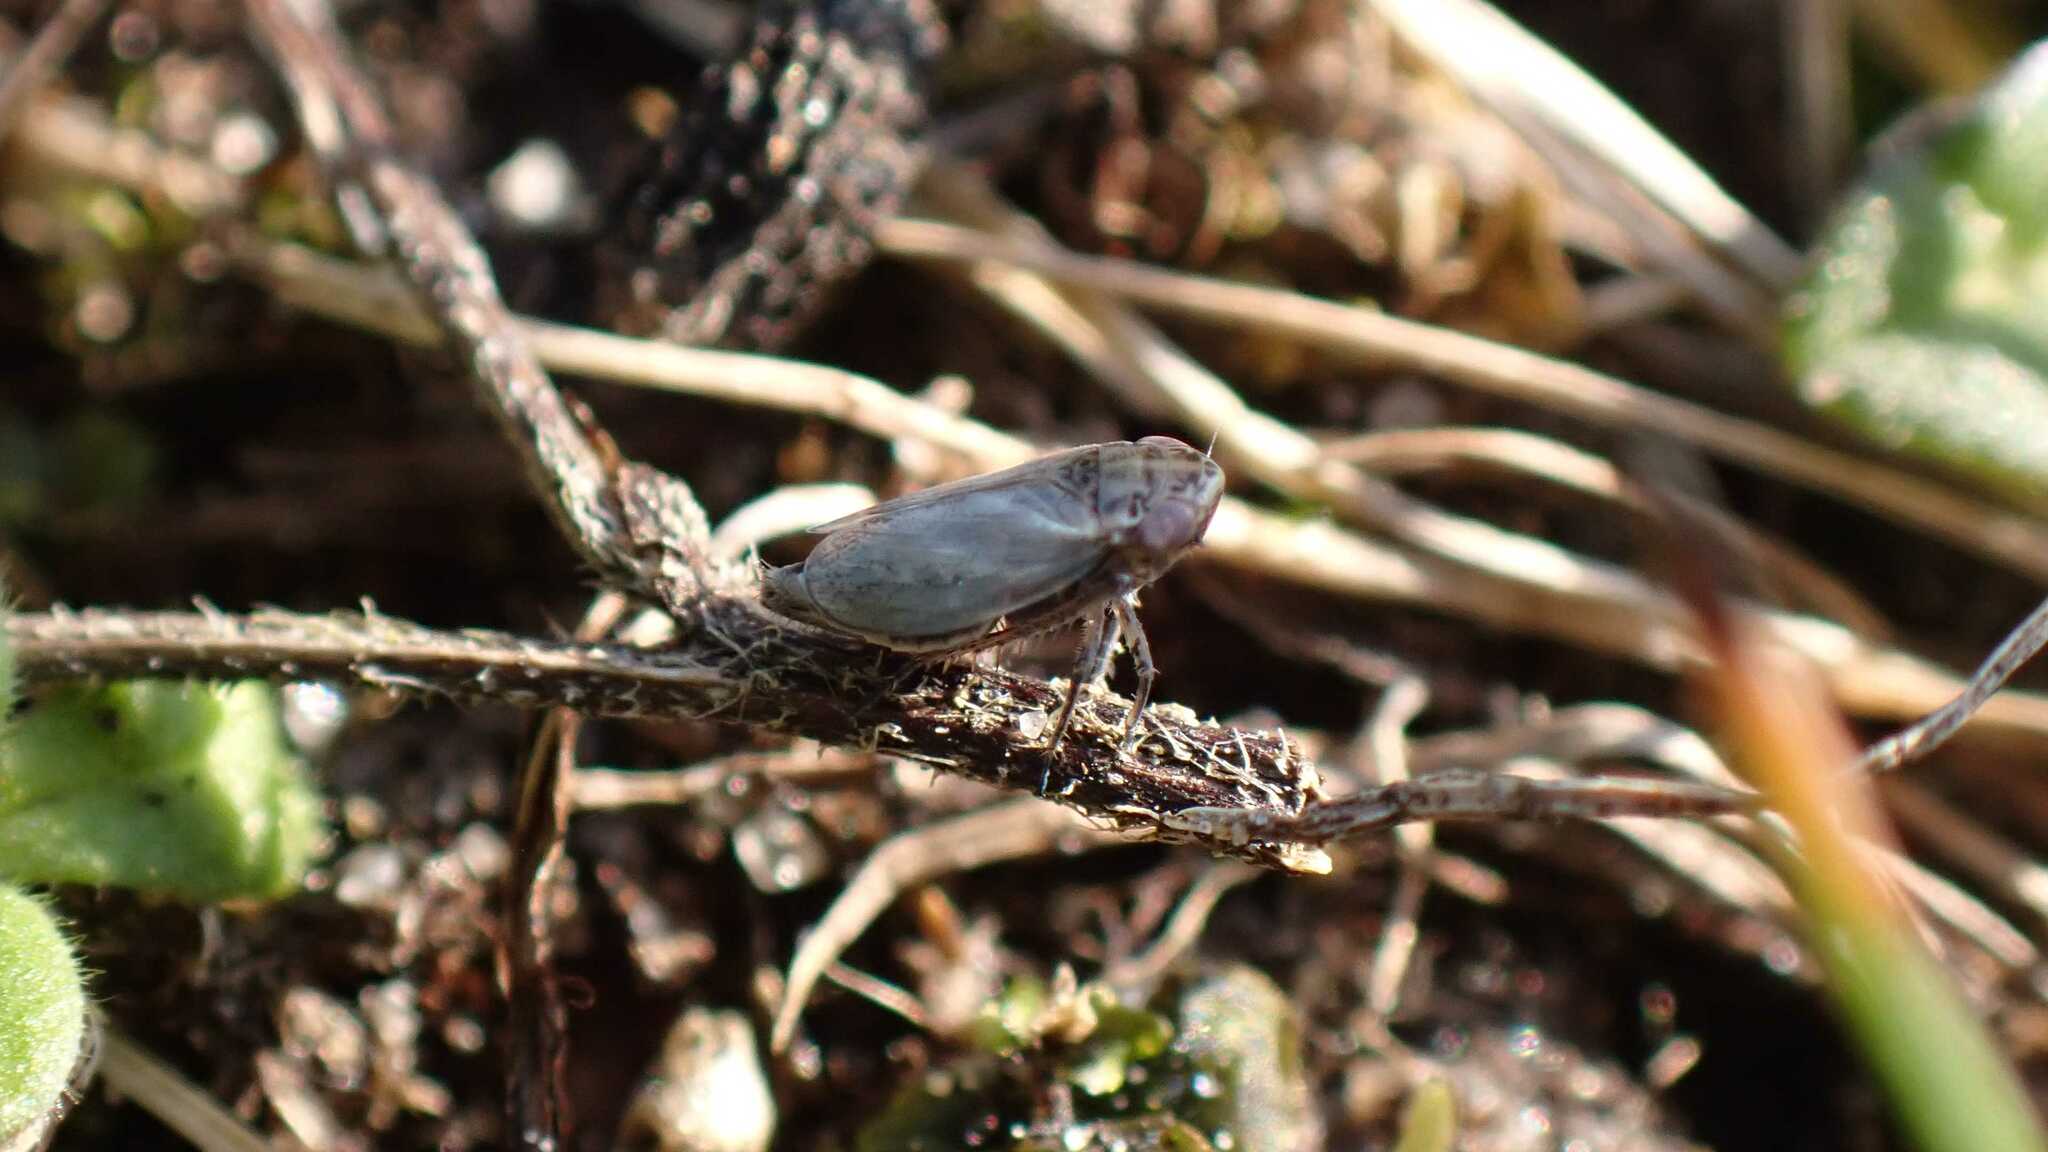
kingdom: Animalia
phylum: Arthropoda
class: Insecta
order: Hemiptera
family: Cicadellidae
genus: Euscelis
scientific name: Euscelis incisa
